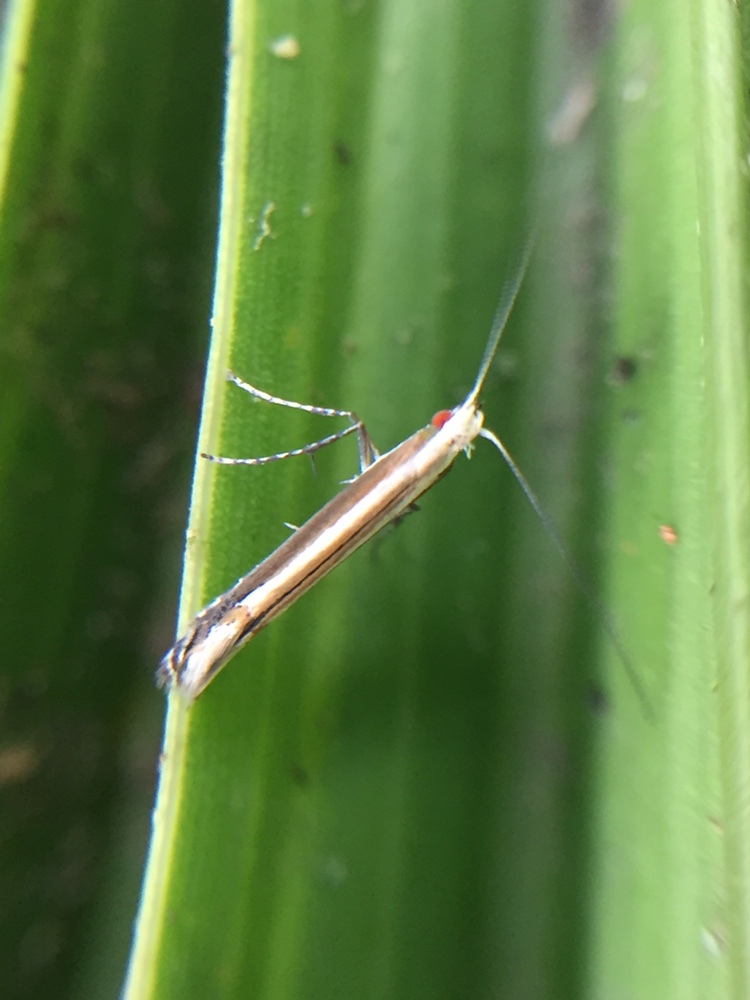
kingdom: Animalia
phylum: Arthropoda
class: Insecta
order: Lepidoptera
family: Gracillariidae
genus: Acrocercops
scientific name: Acrocercops laciniella
